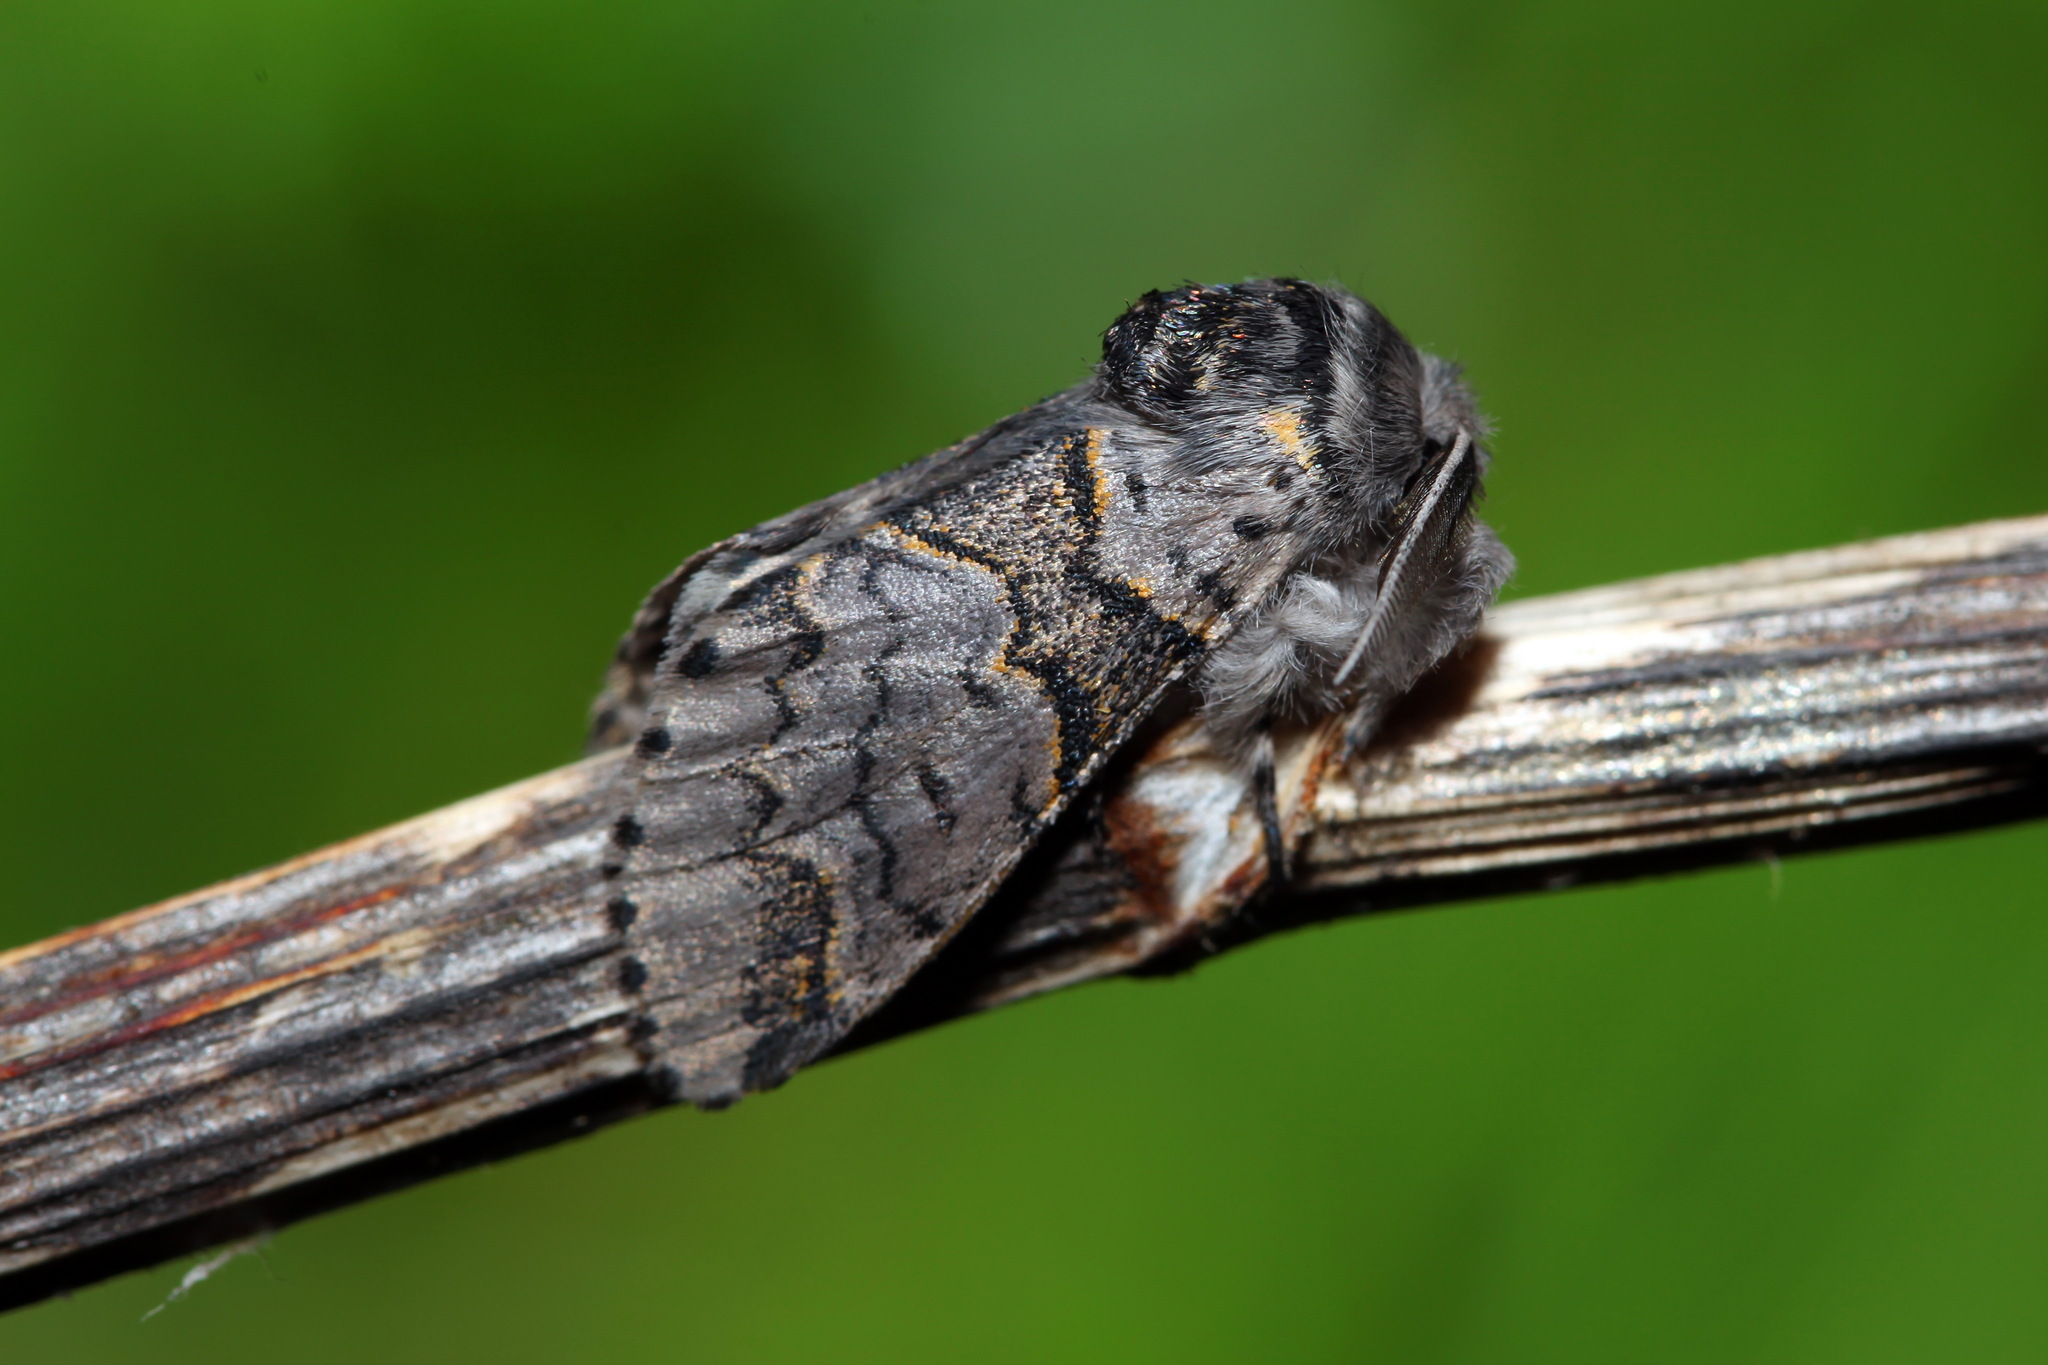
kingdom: Animalia
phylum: Arthropoda
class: Insecta
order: Lepidoptera
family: Notodontidae
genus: Furcula
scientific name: Furcula furcula
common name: Sallow kitten
